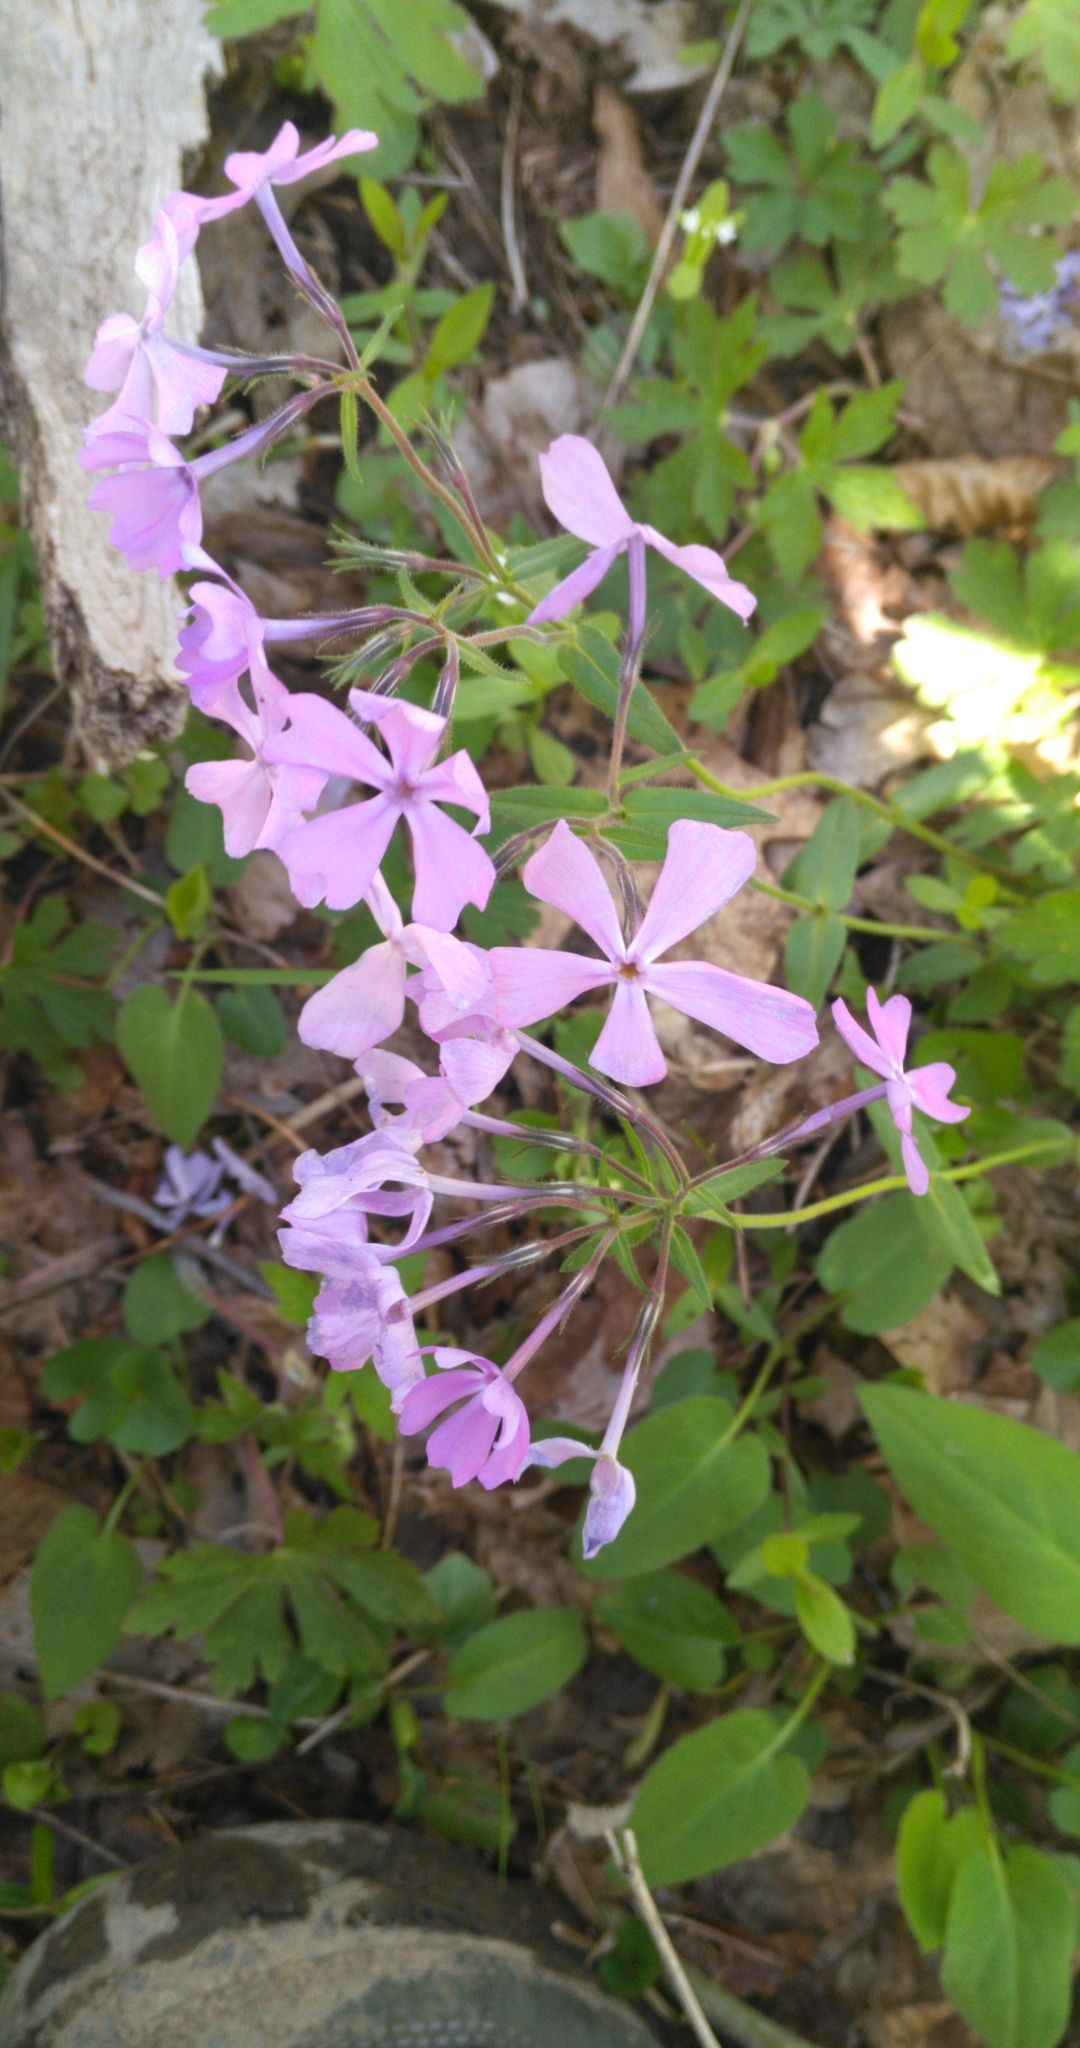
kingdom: Plantae
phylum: Tracheophyta
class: Magnoliopsida
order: Ericales
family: Polemoniaceae
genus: Phlox
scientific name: Phlox divaricata
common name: Blue phlox
